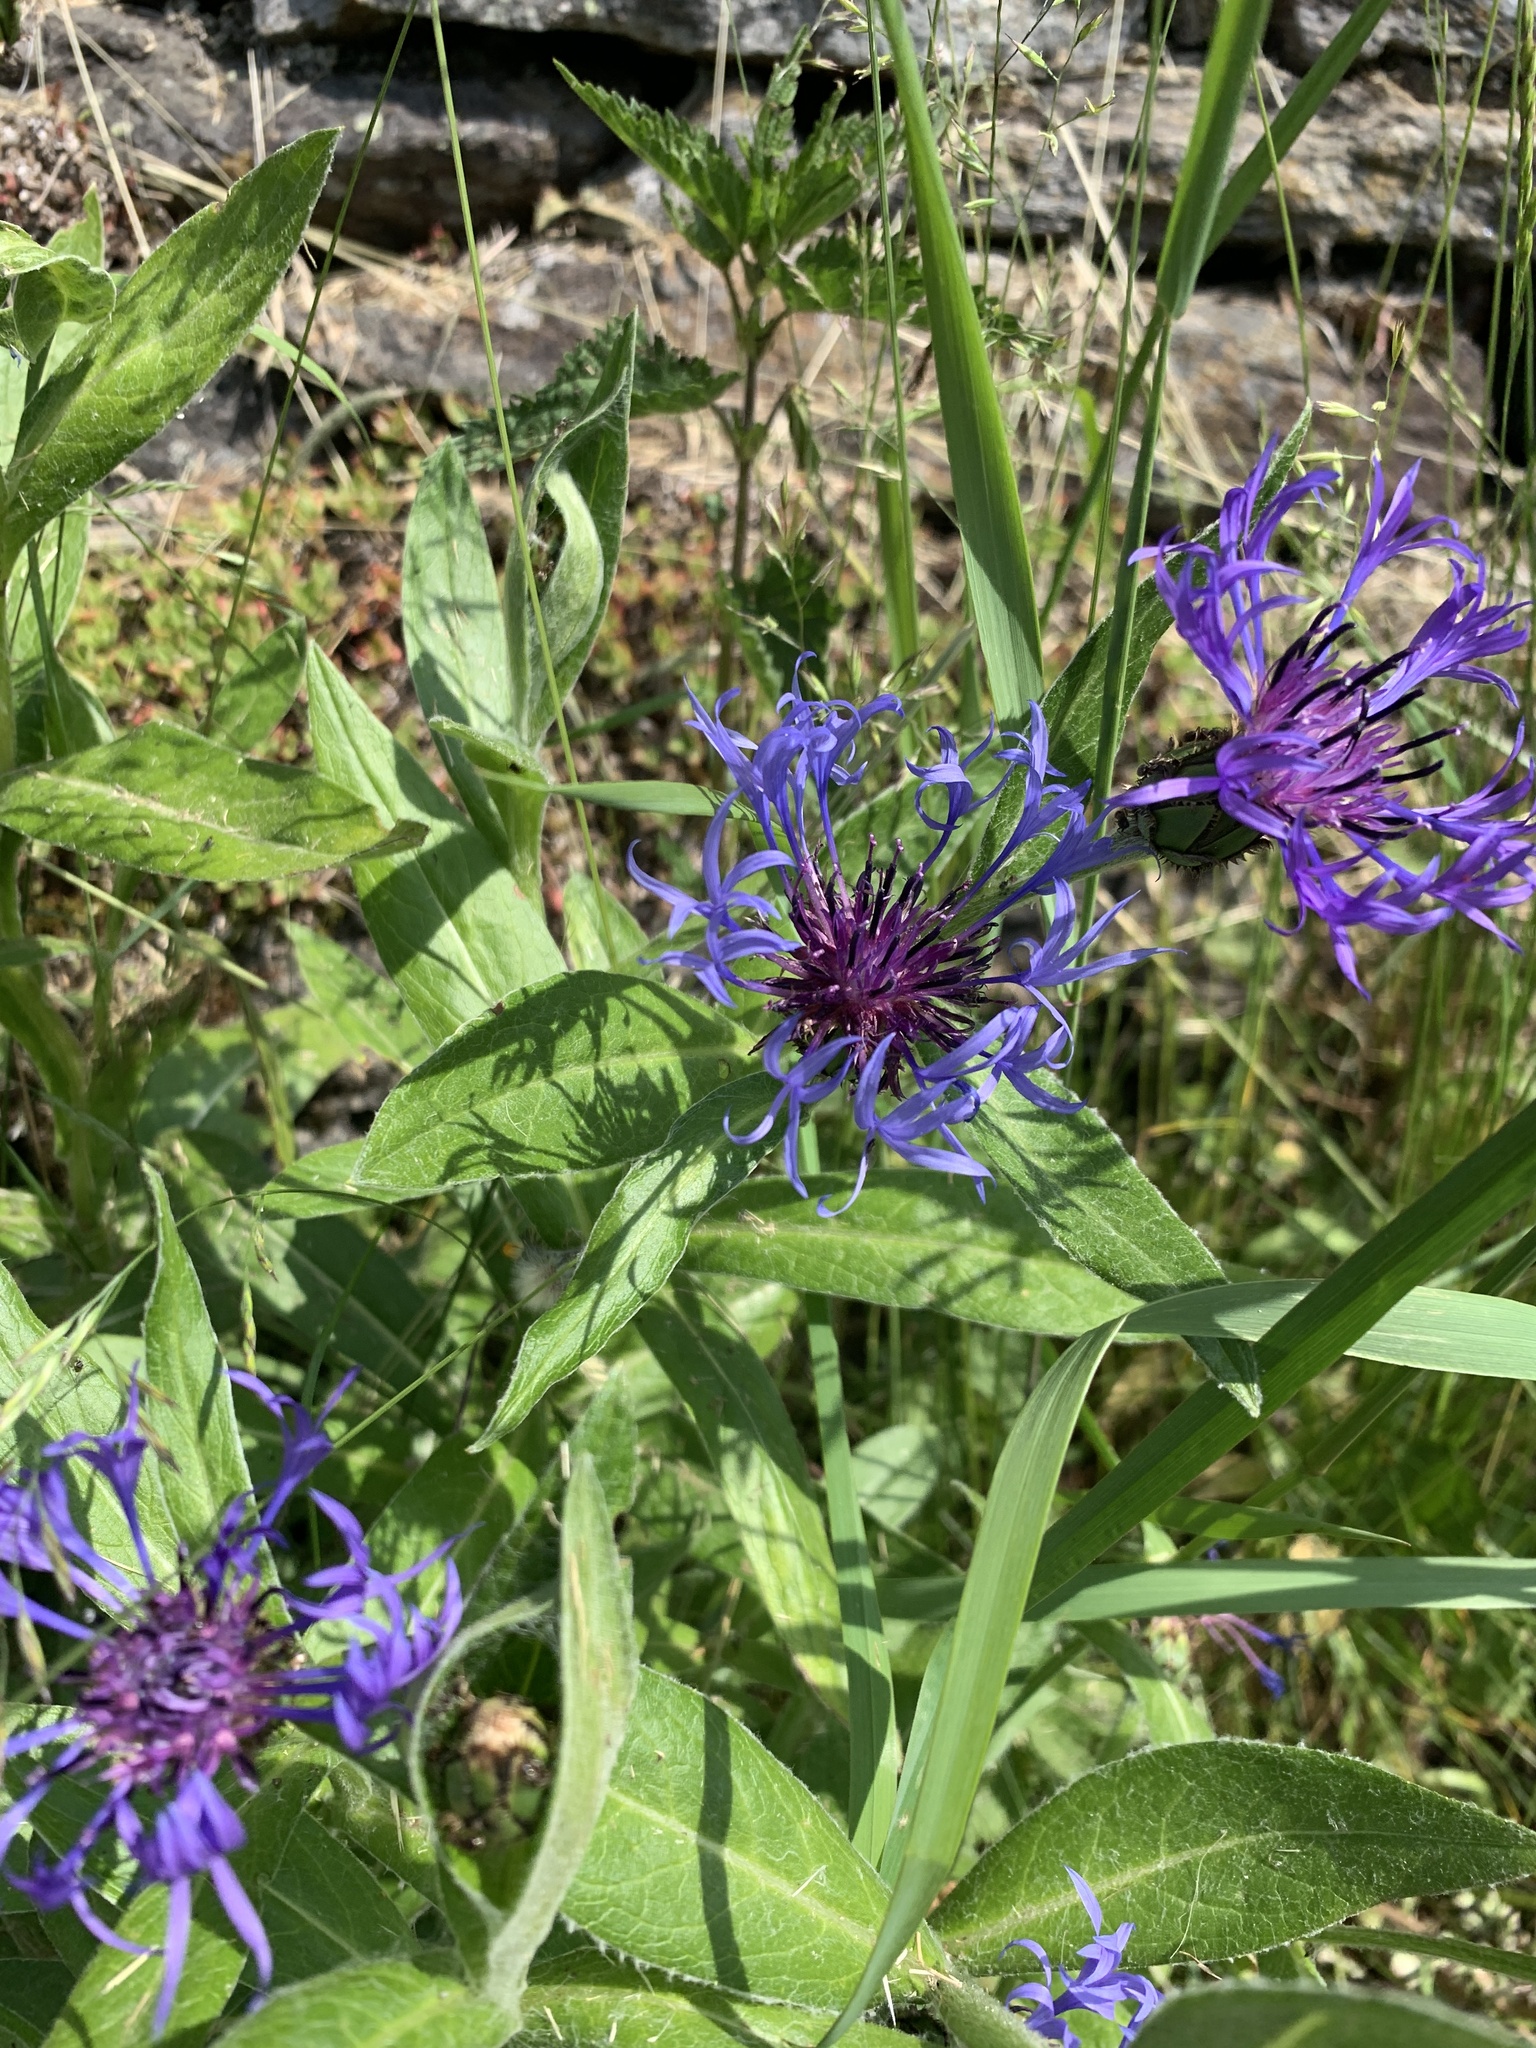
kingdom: Plantae
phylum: Tracheophyta
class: Magnoliopsida
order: Asterales
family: Asteraceae
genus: Centaurea
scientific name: Centaurea montana
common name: Perennial cornflower
